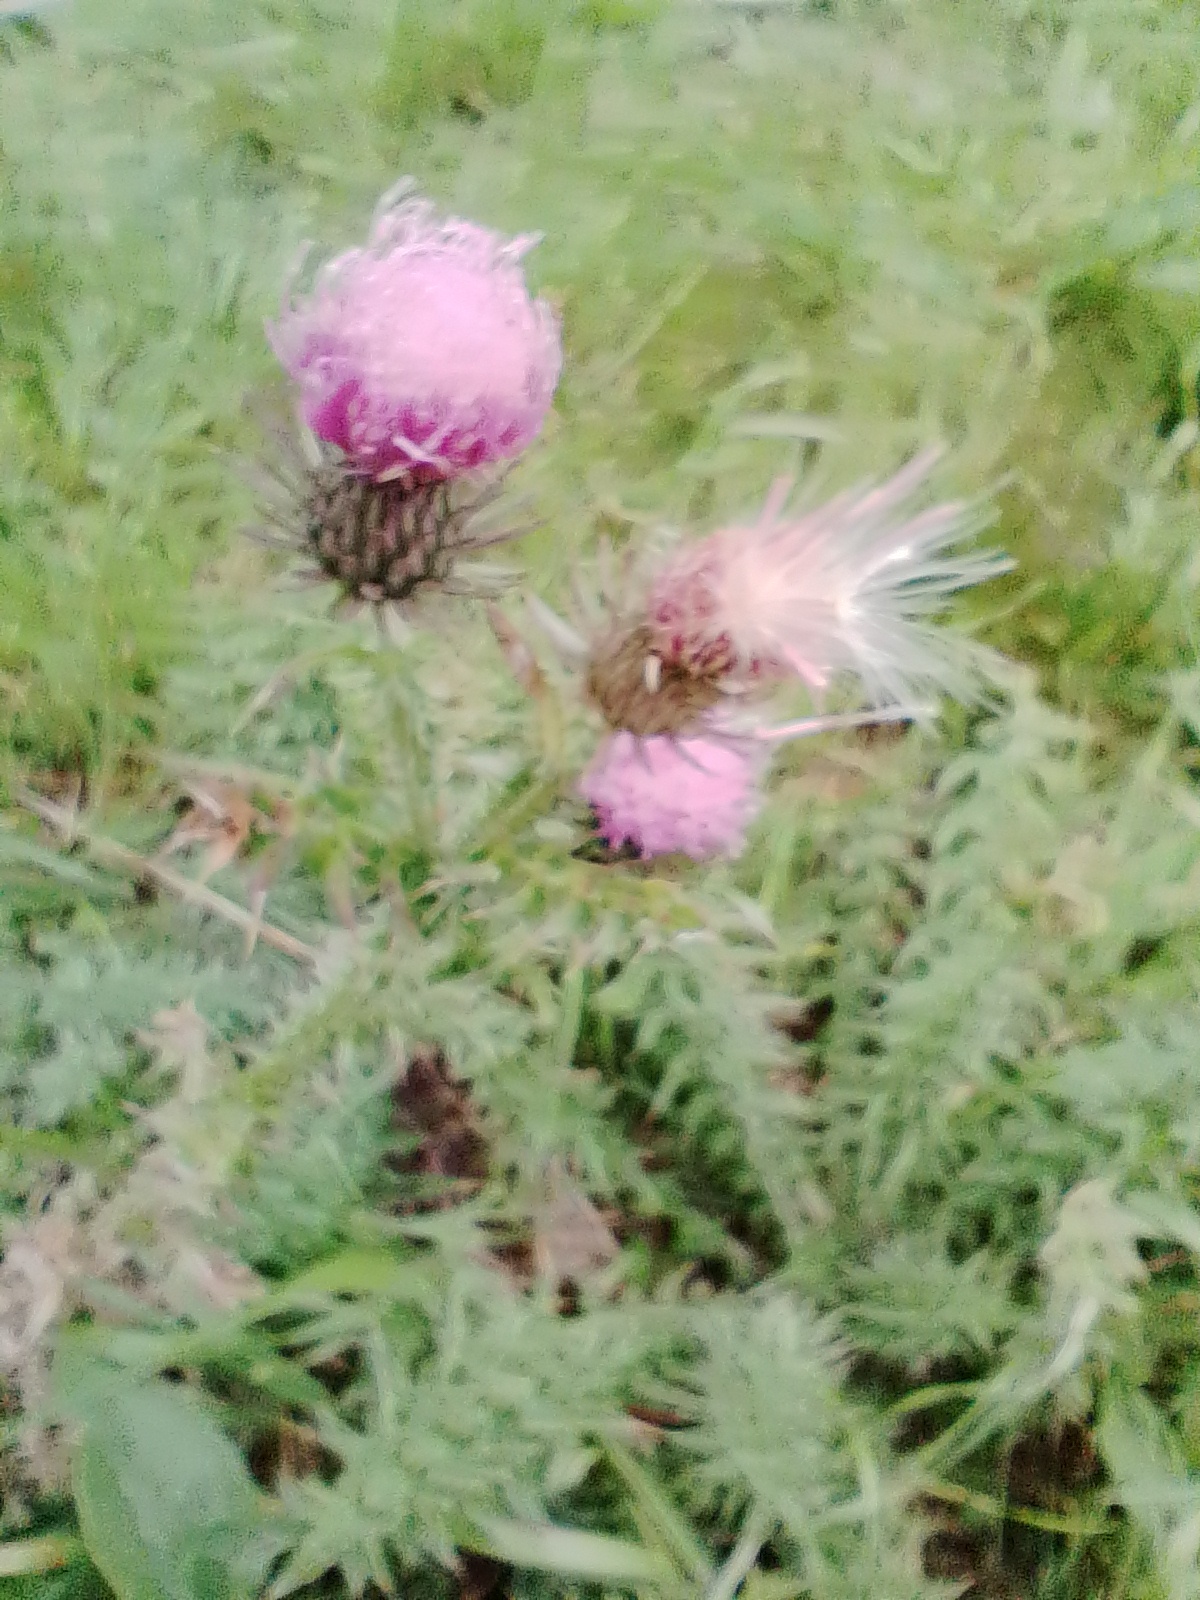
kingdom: Plantae
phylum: Tracheophyta
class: Magnoliopsida
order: Asterales
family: Asteraceae
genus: Carduus
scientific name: Carduus acanthoides
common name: Plumeless thistle
